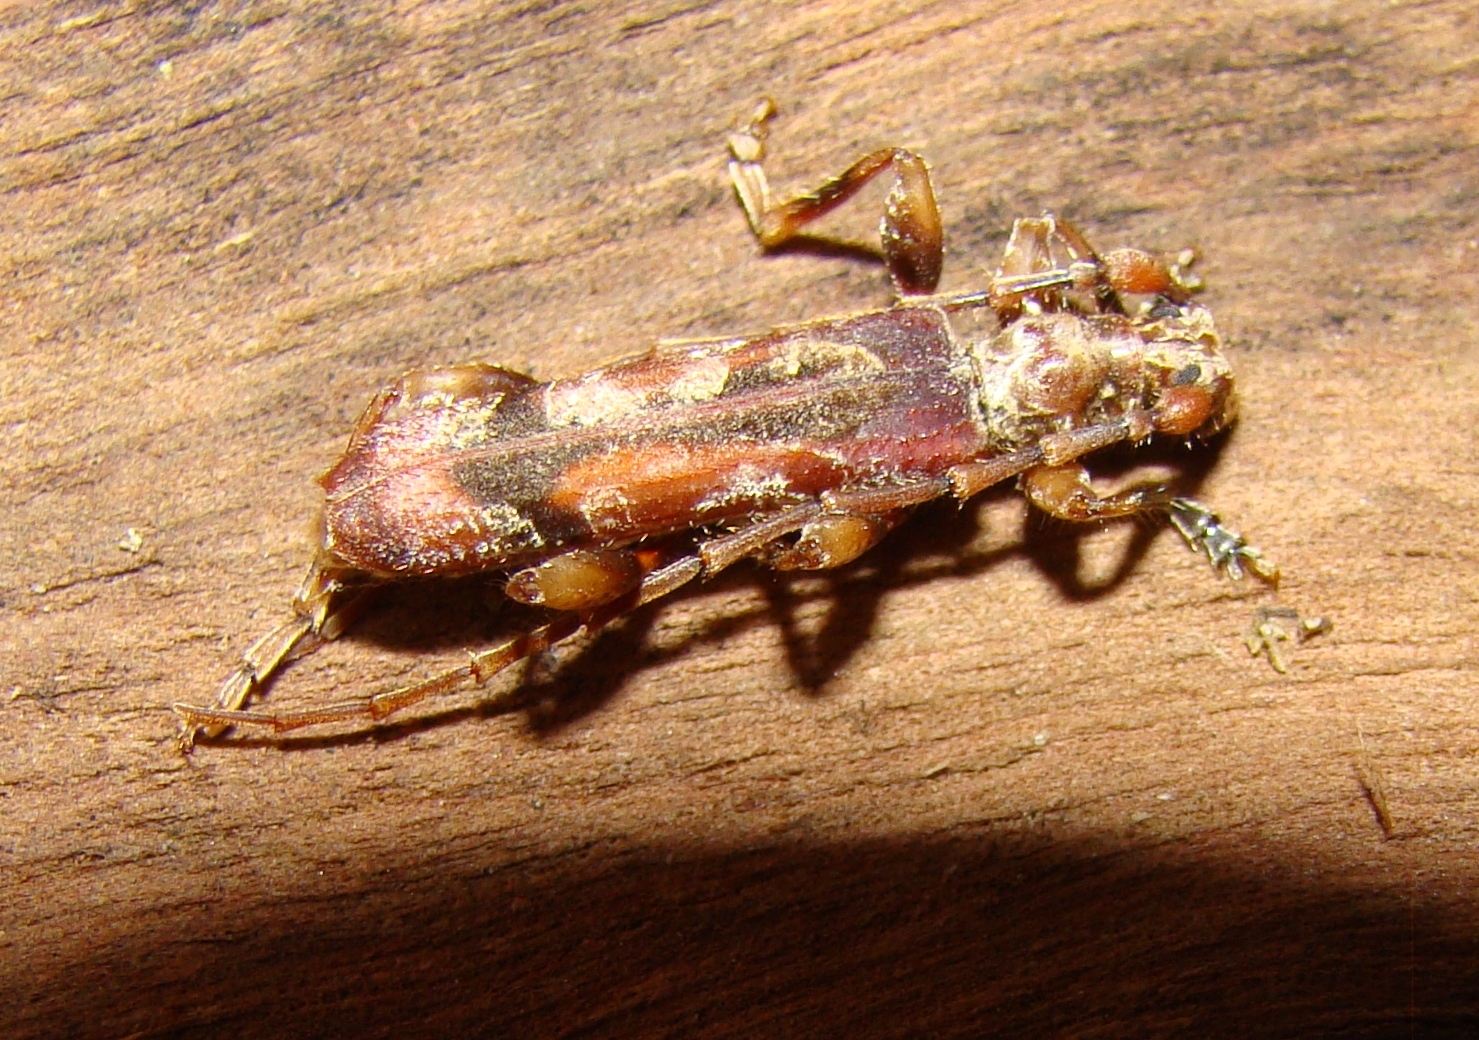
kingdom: Animalia
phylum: Arthropoda
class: Insecta
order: Coleoptera
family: Cerambycidae
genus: Tessaromma
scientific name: Tessaromma undatum
